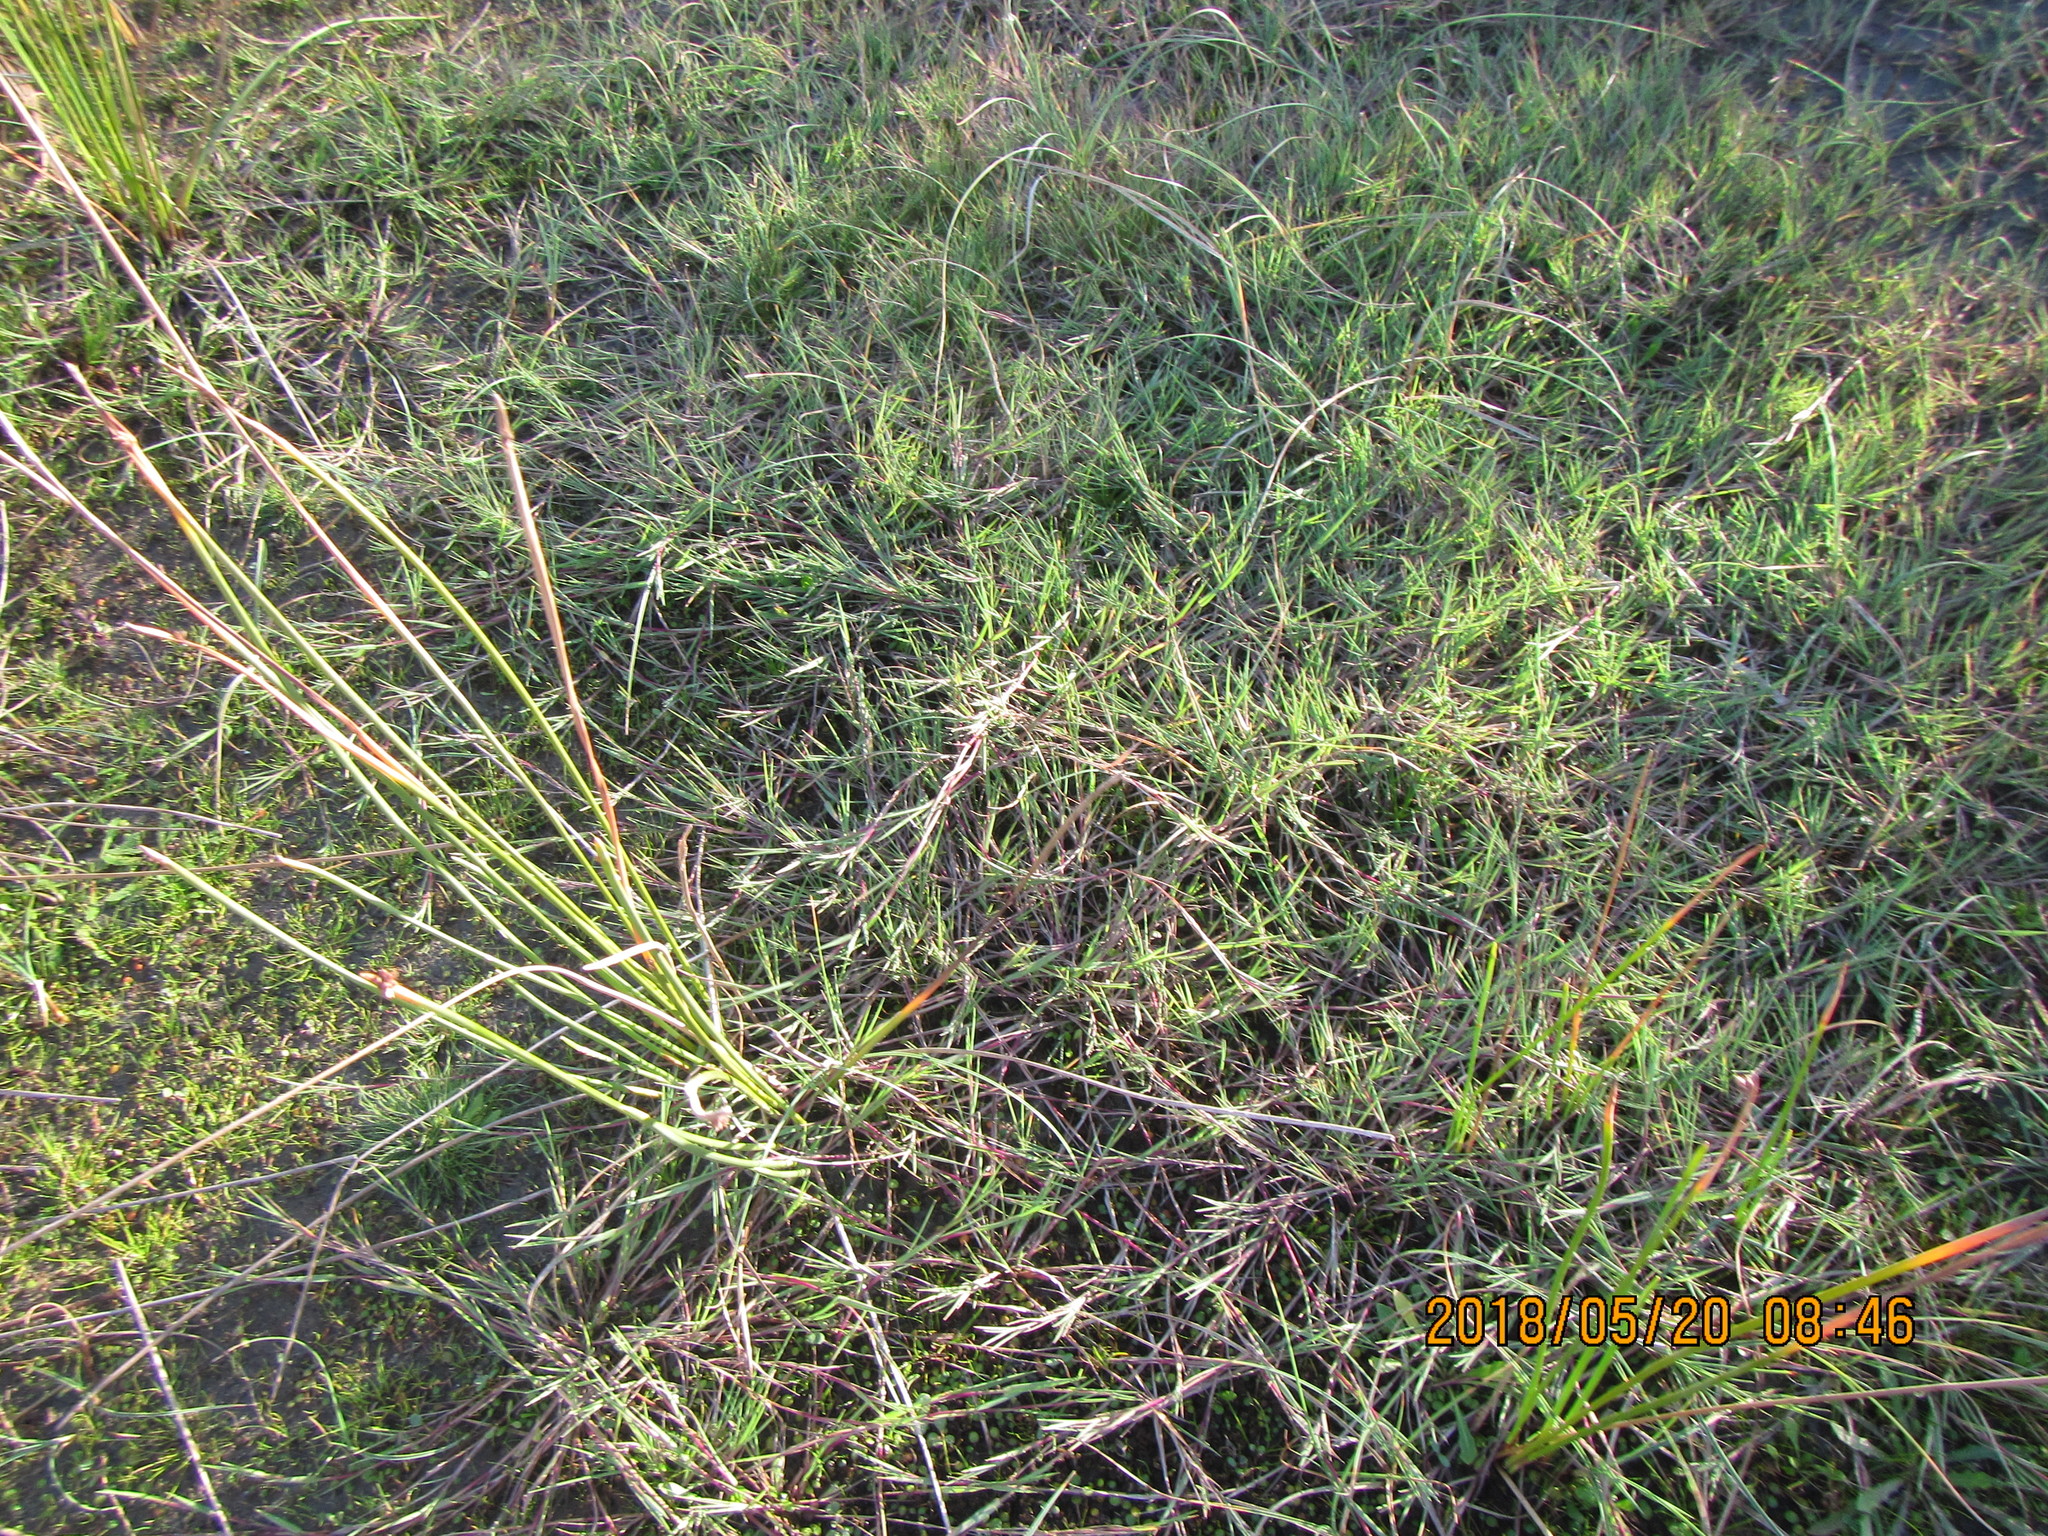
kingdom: Plantae
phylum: Tracheophyta
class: Liliopsida
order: Poales
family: Poaceae
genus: Agrostis
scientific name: Agrostis stolonifera
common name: Creeping bentgrass
